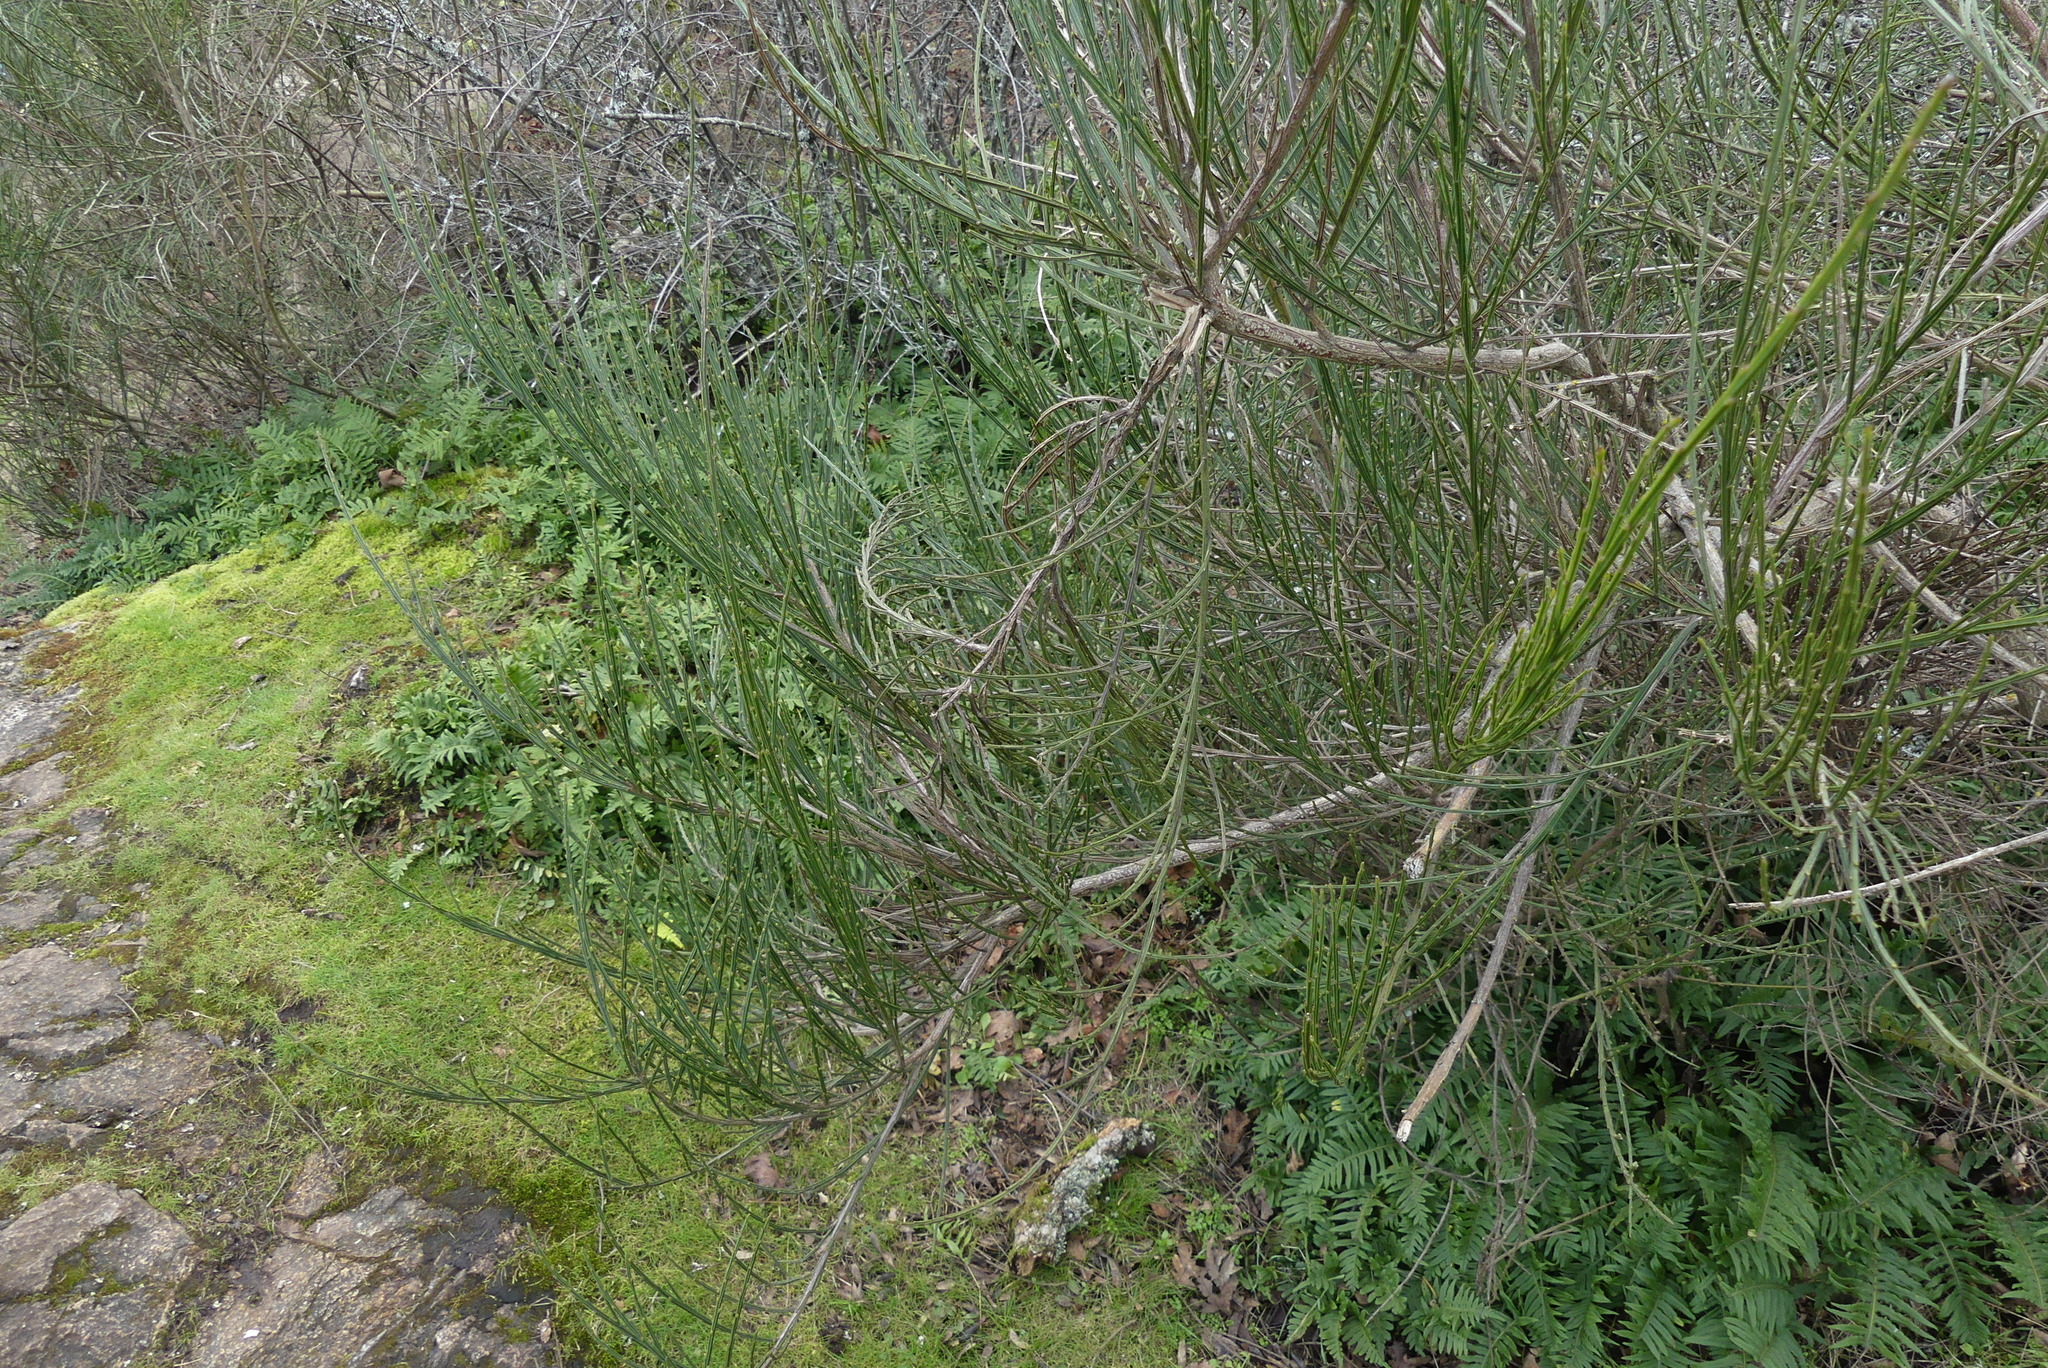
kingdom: Plantae
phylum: Tracheophyta
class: Magnoliopsida
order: Fabales
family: Fabaceae
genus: Cytisus
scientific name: Cytisus scoparius
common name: Scotch broom
